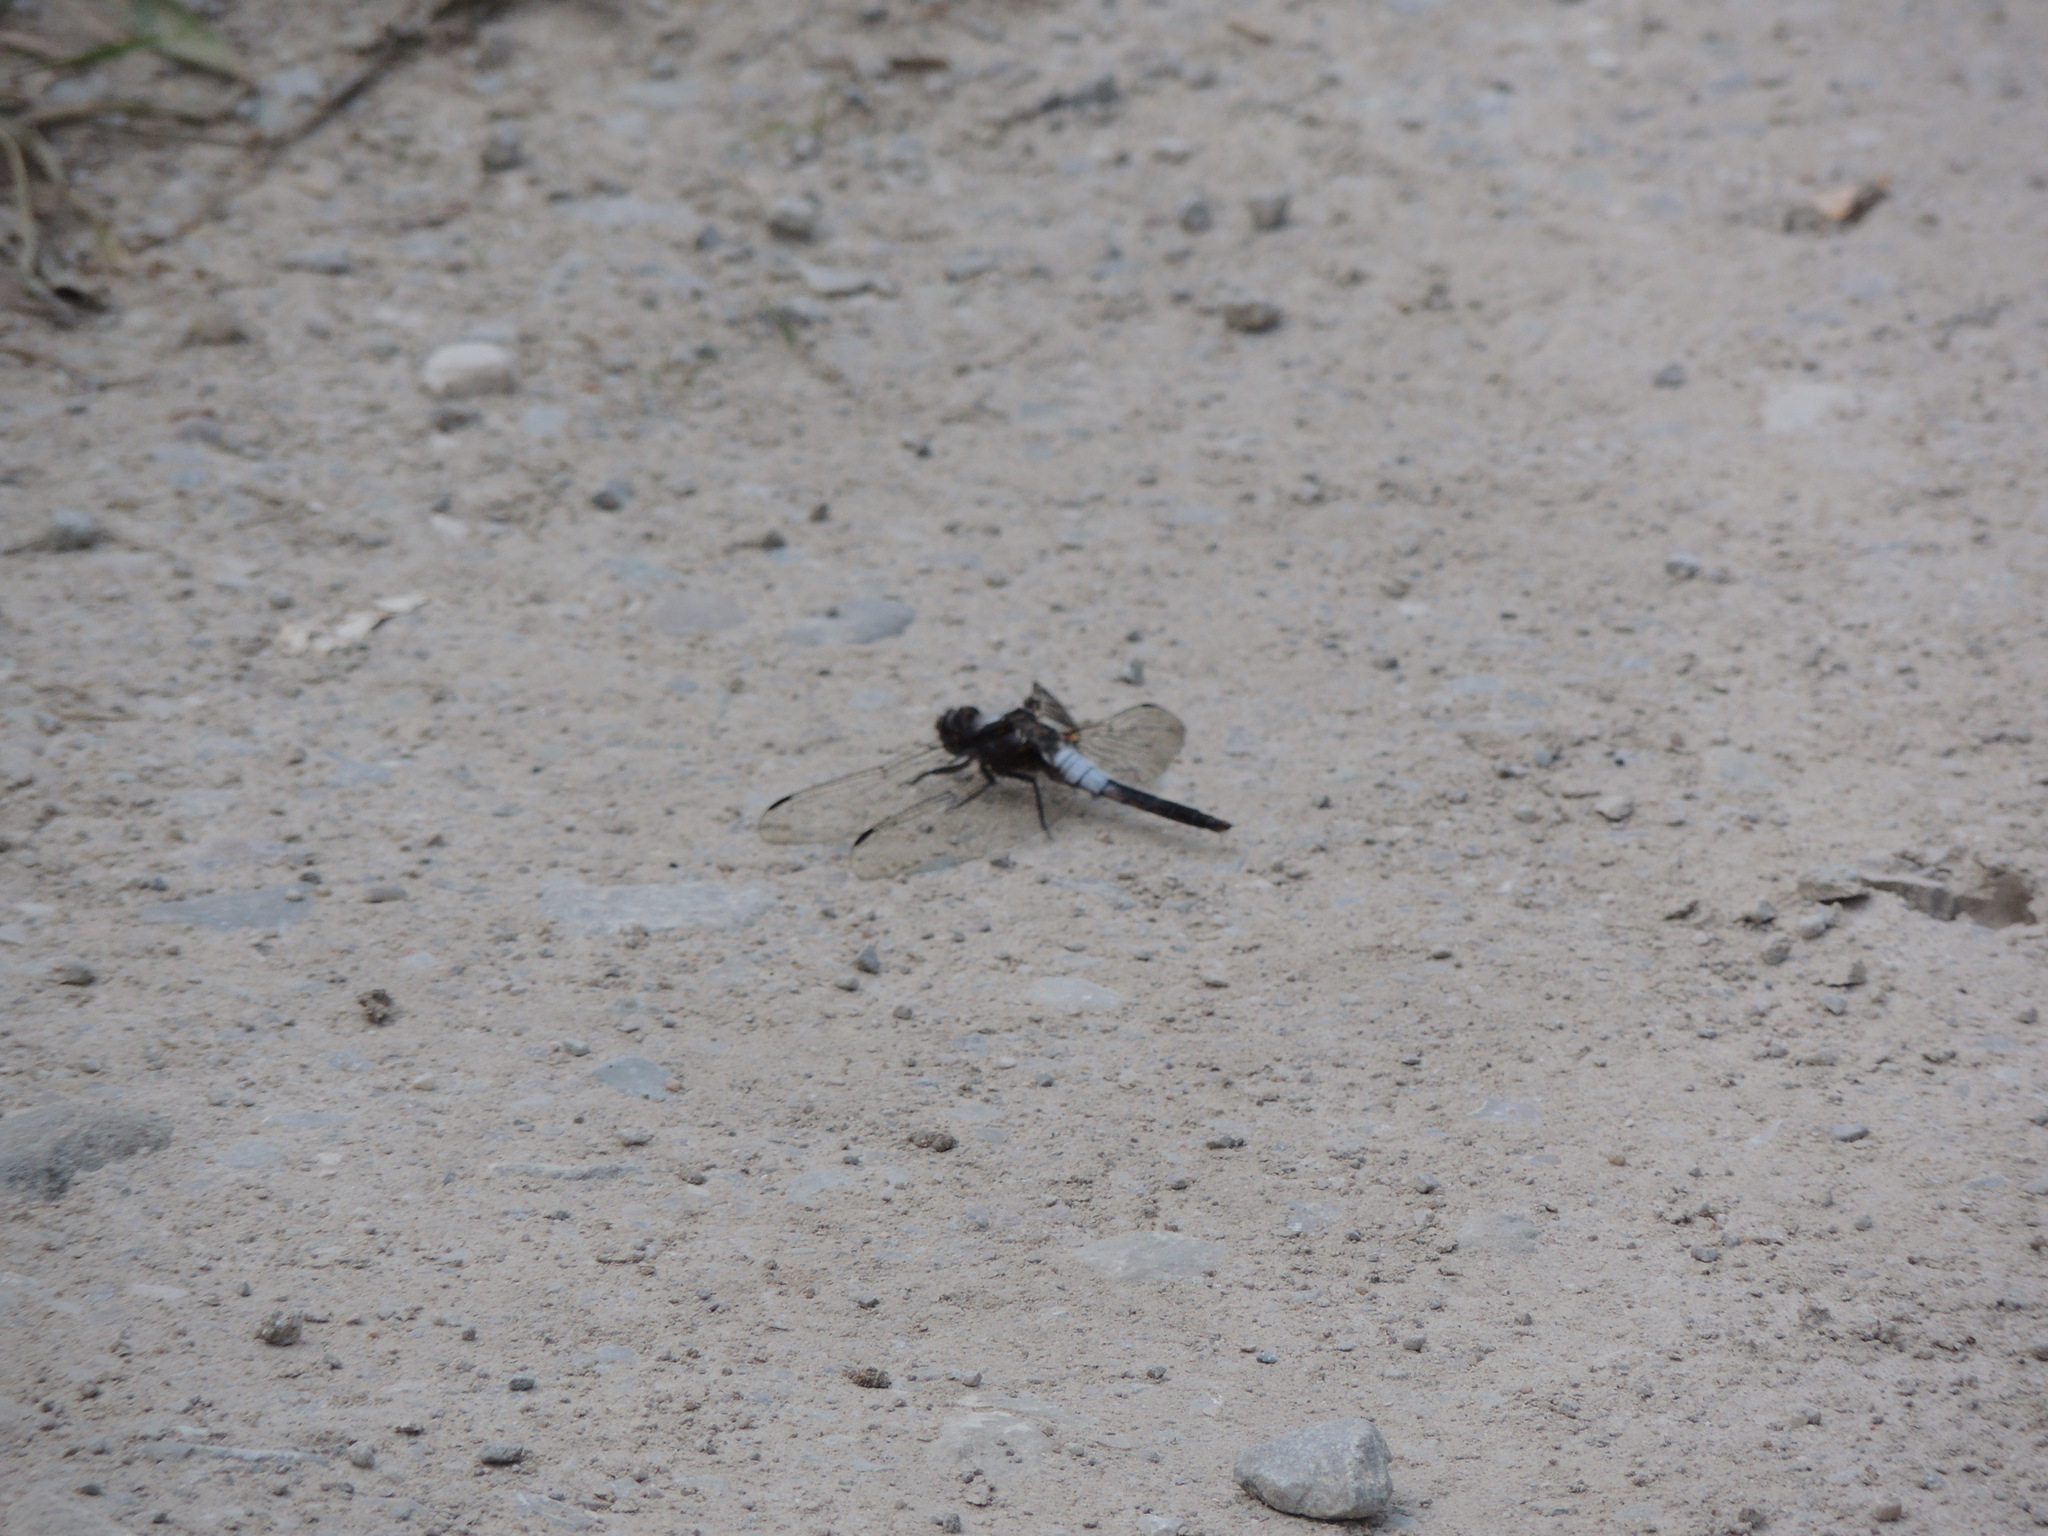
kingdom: Animalia
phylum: Arthropoda
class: Insecta
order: Odonata
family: Libellulidae
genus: Ladona
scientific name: Ladona julia
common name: Chalk-fronted corporal
